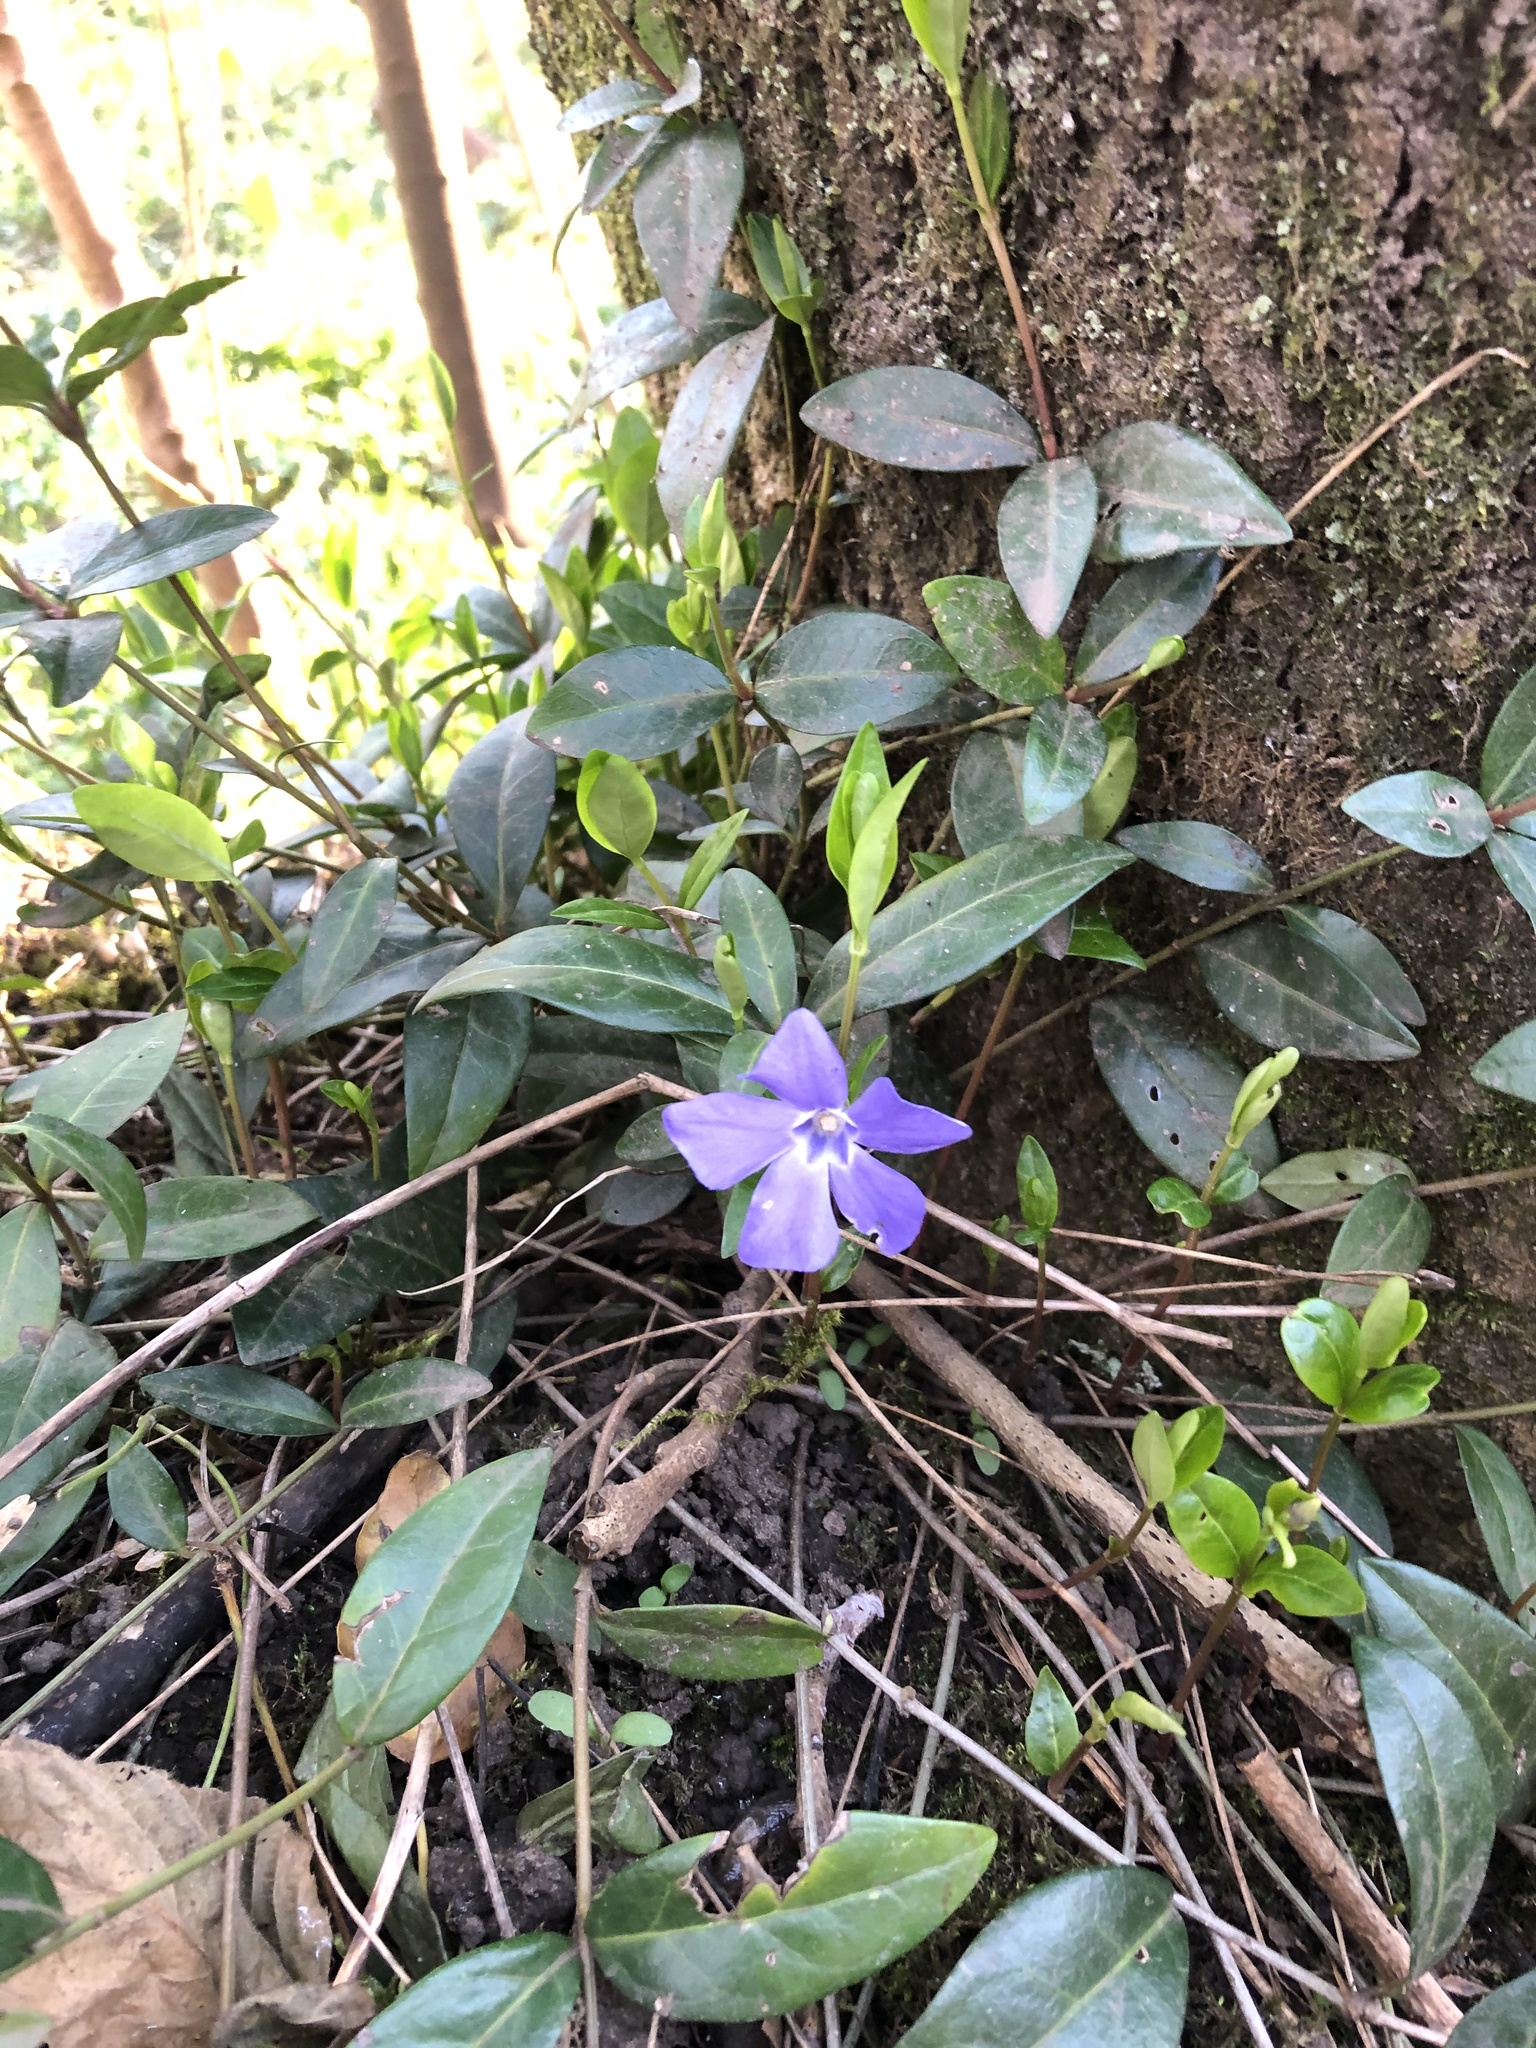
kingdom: Plantae
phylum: Tracheophyta
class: Magnoliopsida
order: Gentianales
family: Apocynaceae
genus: Vinca
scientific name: Vinca minor
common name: Lesser periwinkle
